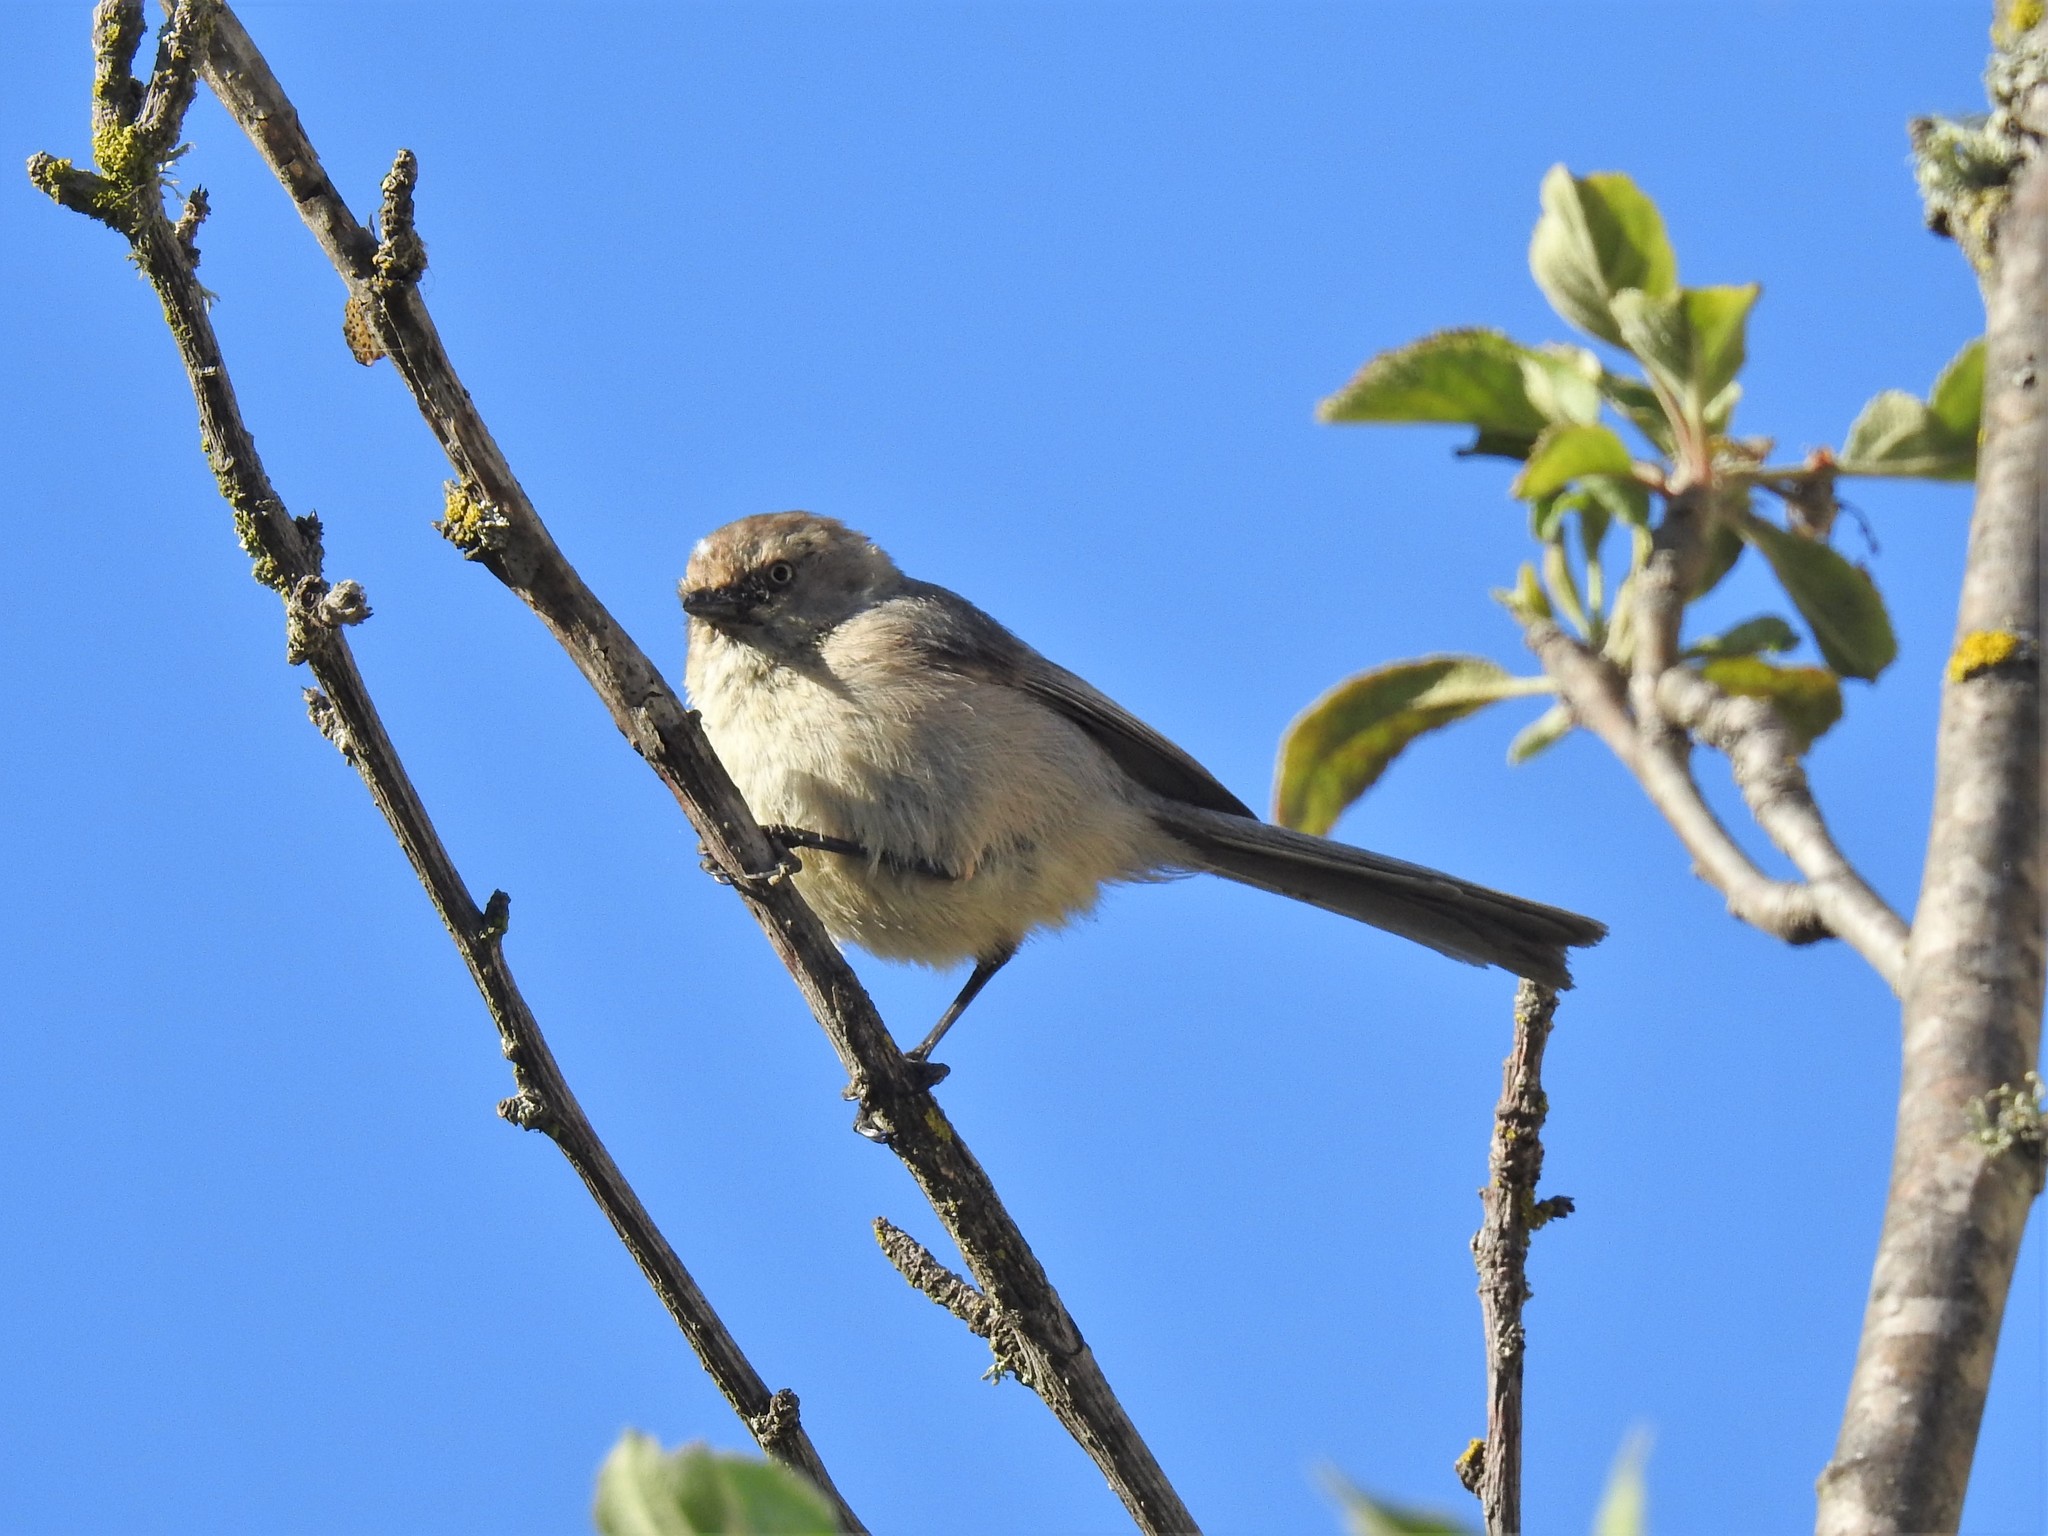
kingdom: Animalia
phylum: Chordata
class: Aves
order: Passeriformes
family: Aegithalidae
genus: Psaltriparus
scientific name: Psaltriparus minimus
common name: American bushtit
